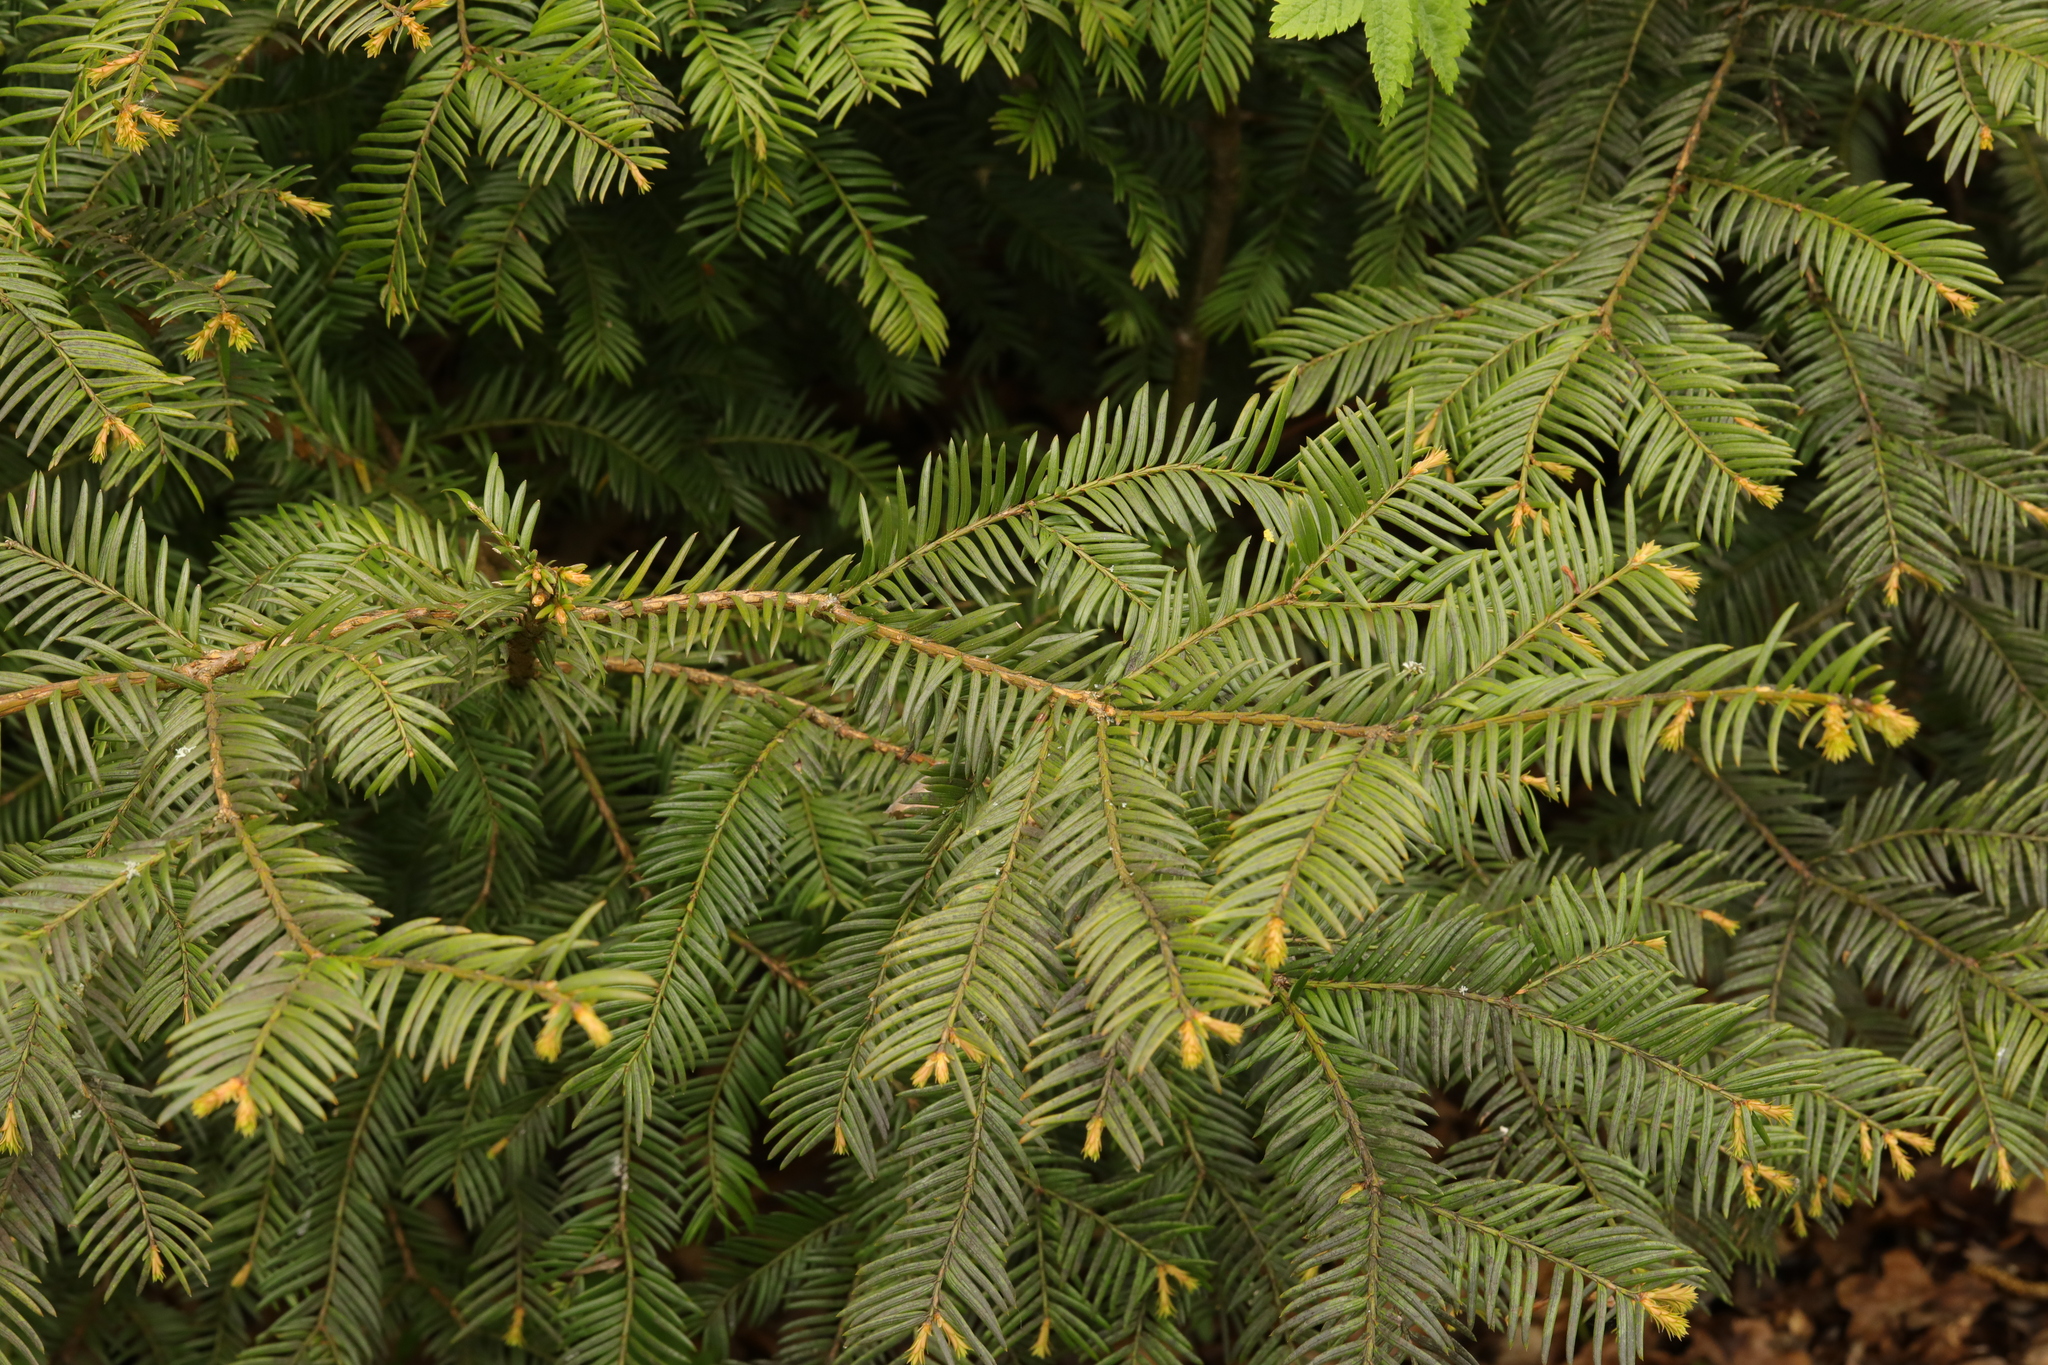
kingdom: Plantae
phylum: Tracheophyta
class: Pinopsida
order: Pinales
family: Taxaceae
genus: Taxus
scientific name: Taxus baccata
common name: Yew
